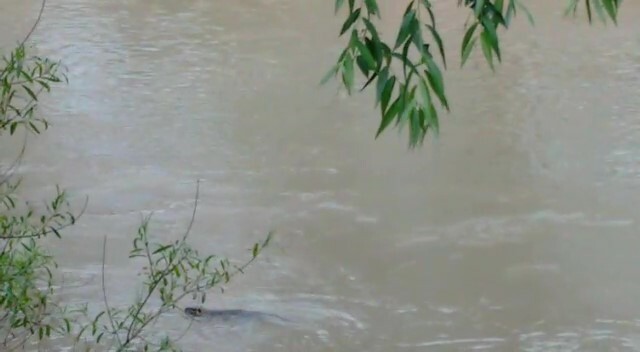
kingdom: Animalia
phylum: Chordata
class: Mammalia
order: Rodentia
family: Myocastoridae
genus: Myocastor
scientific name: Myocastor coypus
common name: Coypu
